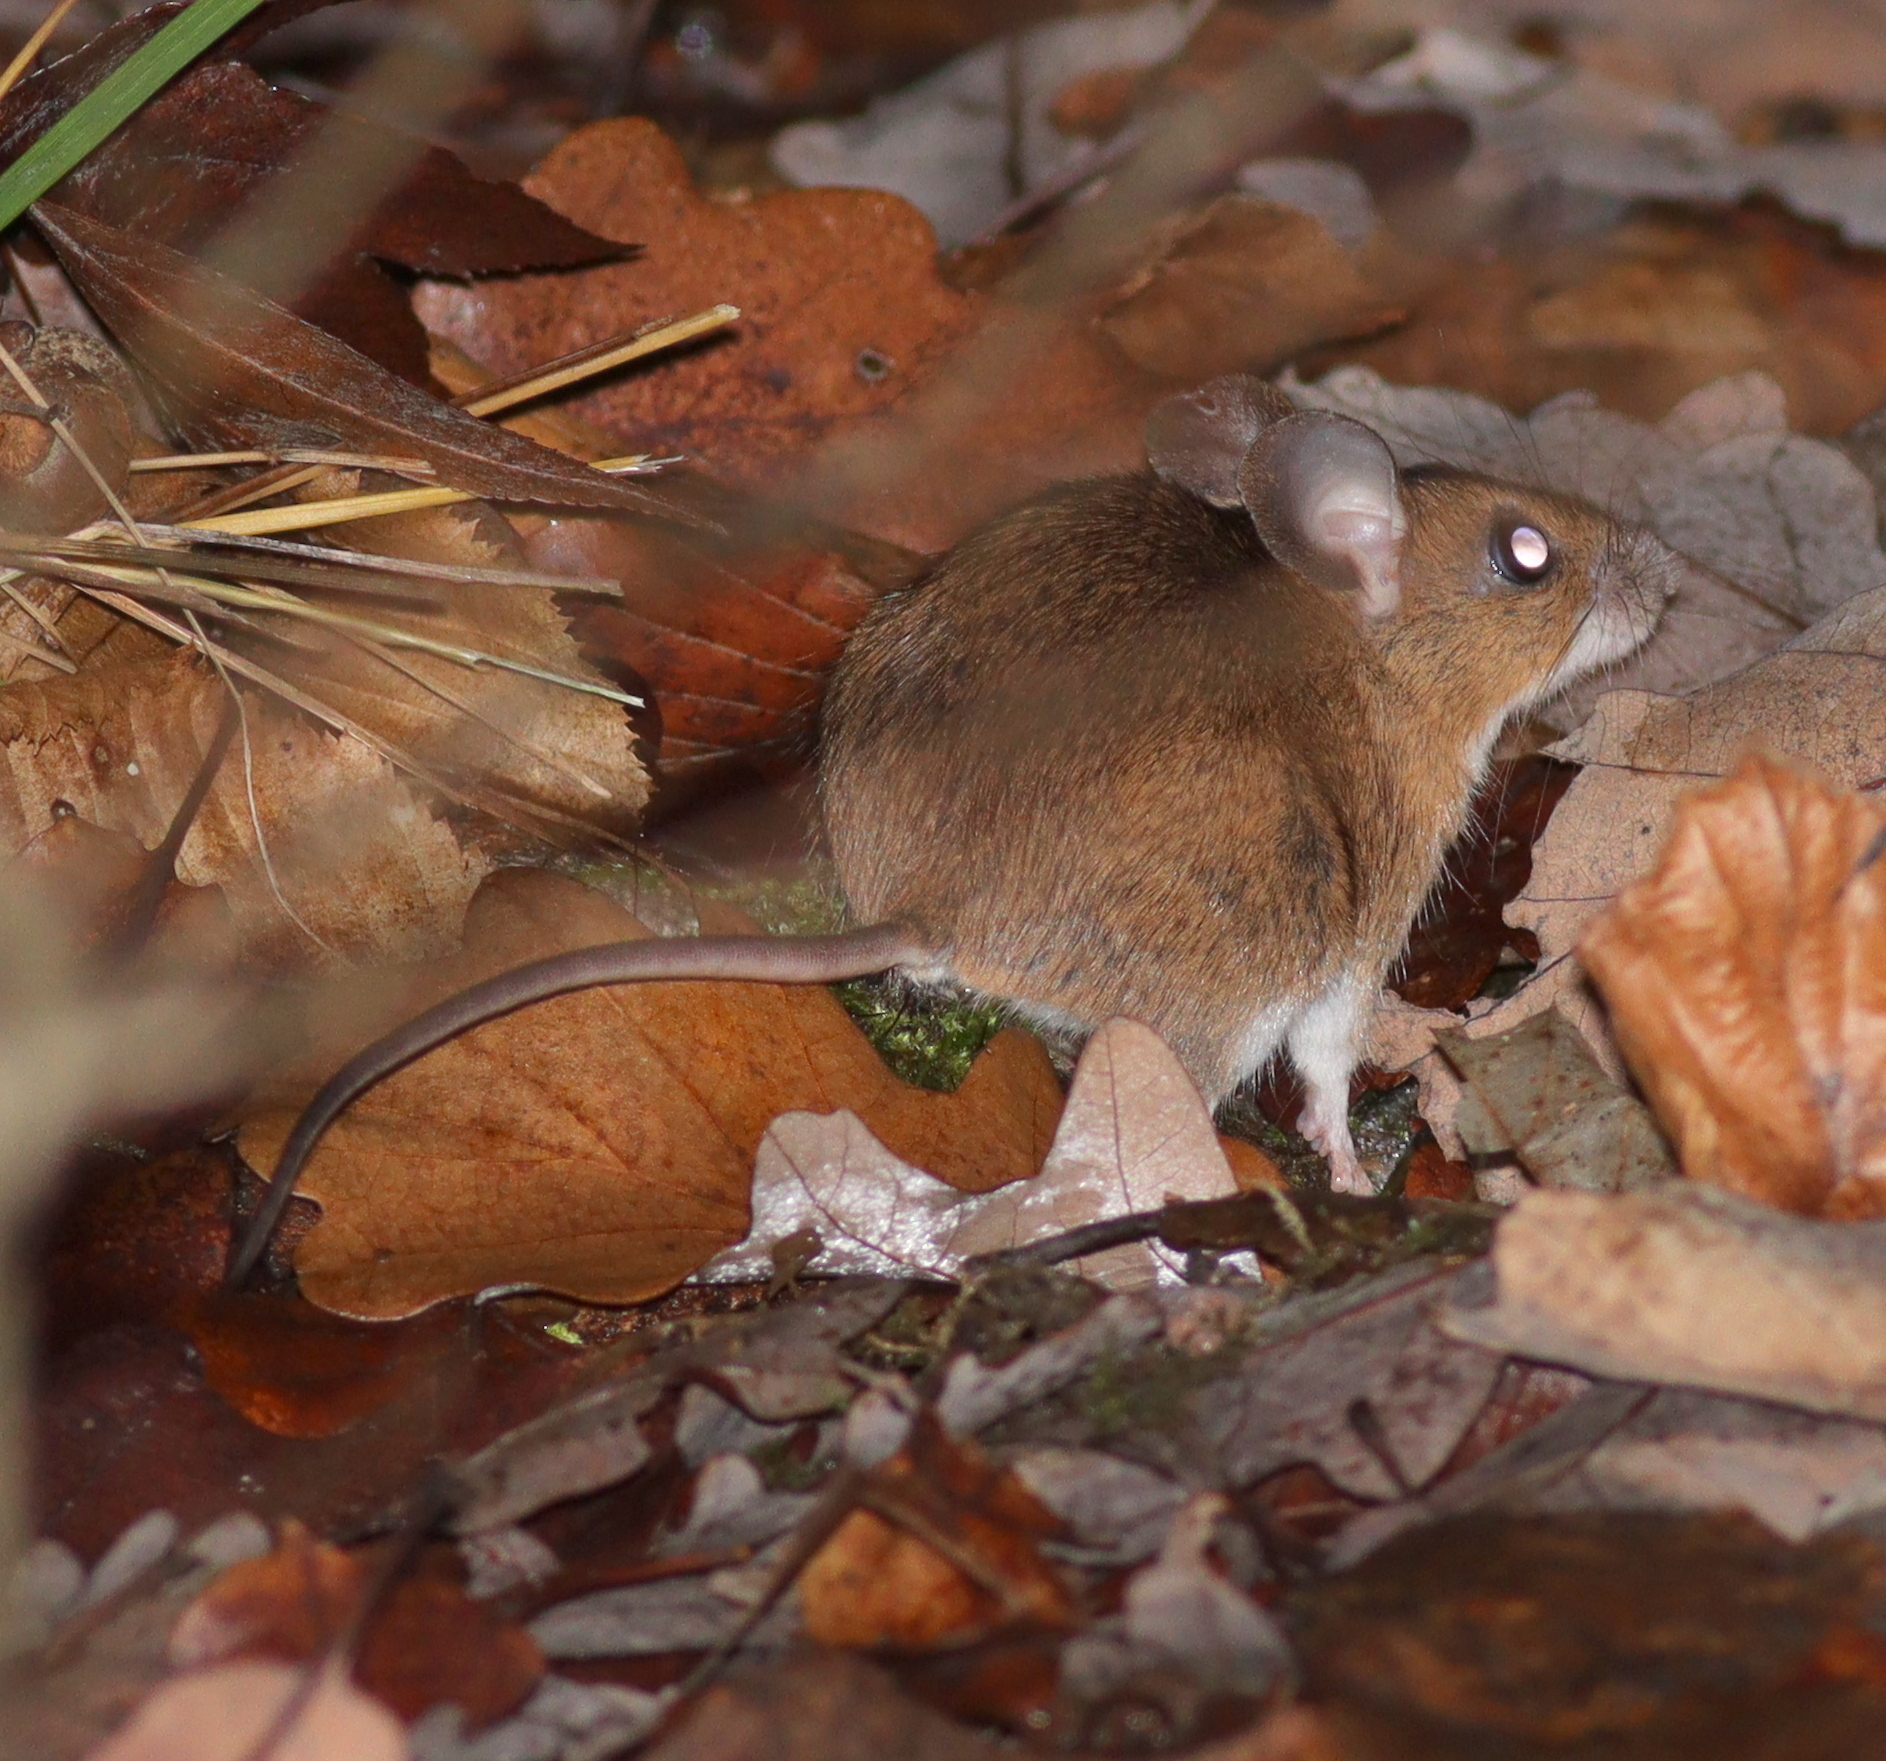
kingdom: Animalia
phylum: Chordata
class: Mammalia
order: Rodentia
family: Muridae
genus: Apodemus
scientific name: Apodemus flavicollis
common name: Yellow-necked field mouse
